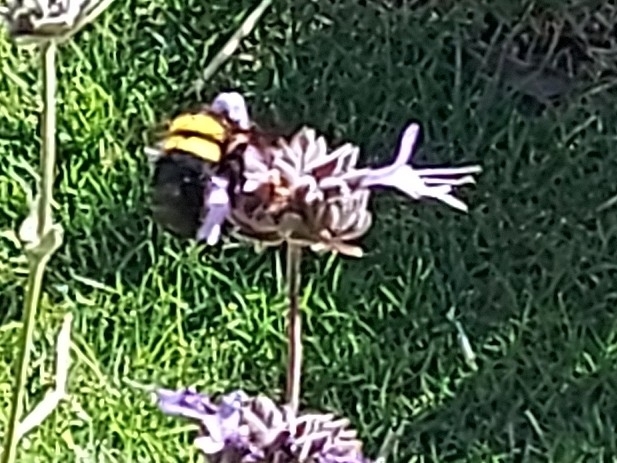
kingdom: Animalia
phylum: Arthropoda
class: Insecta
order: Hymenoptera
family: Apidae
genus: Xylocopa
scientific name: Xylocopa caffra
